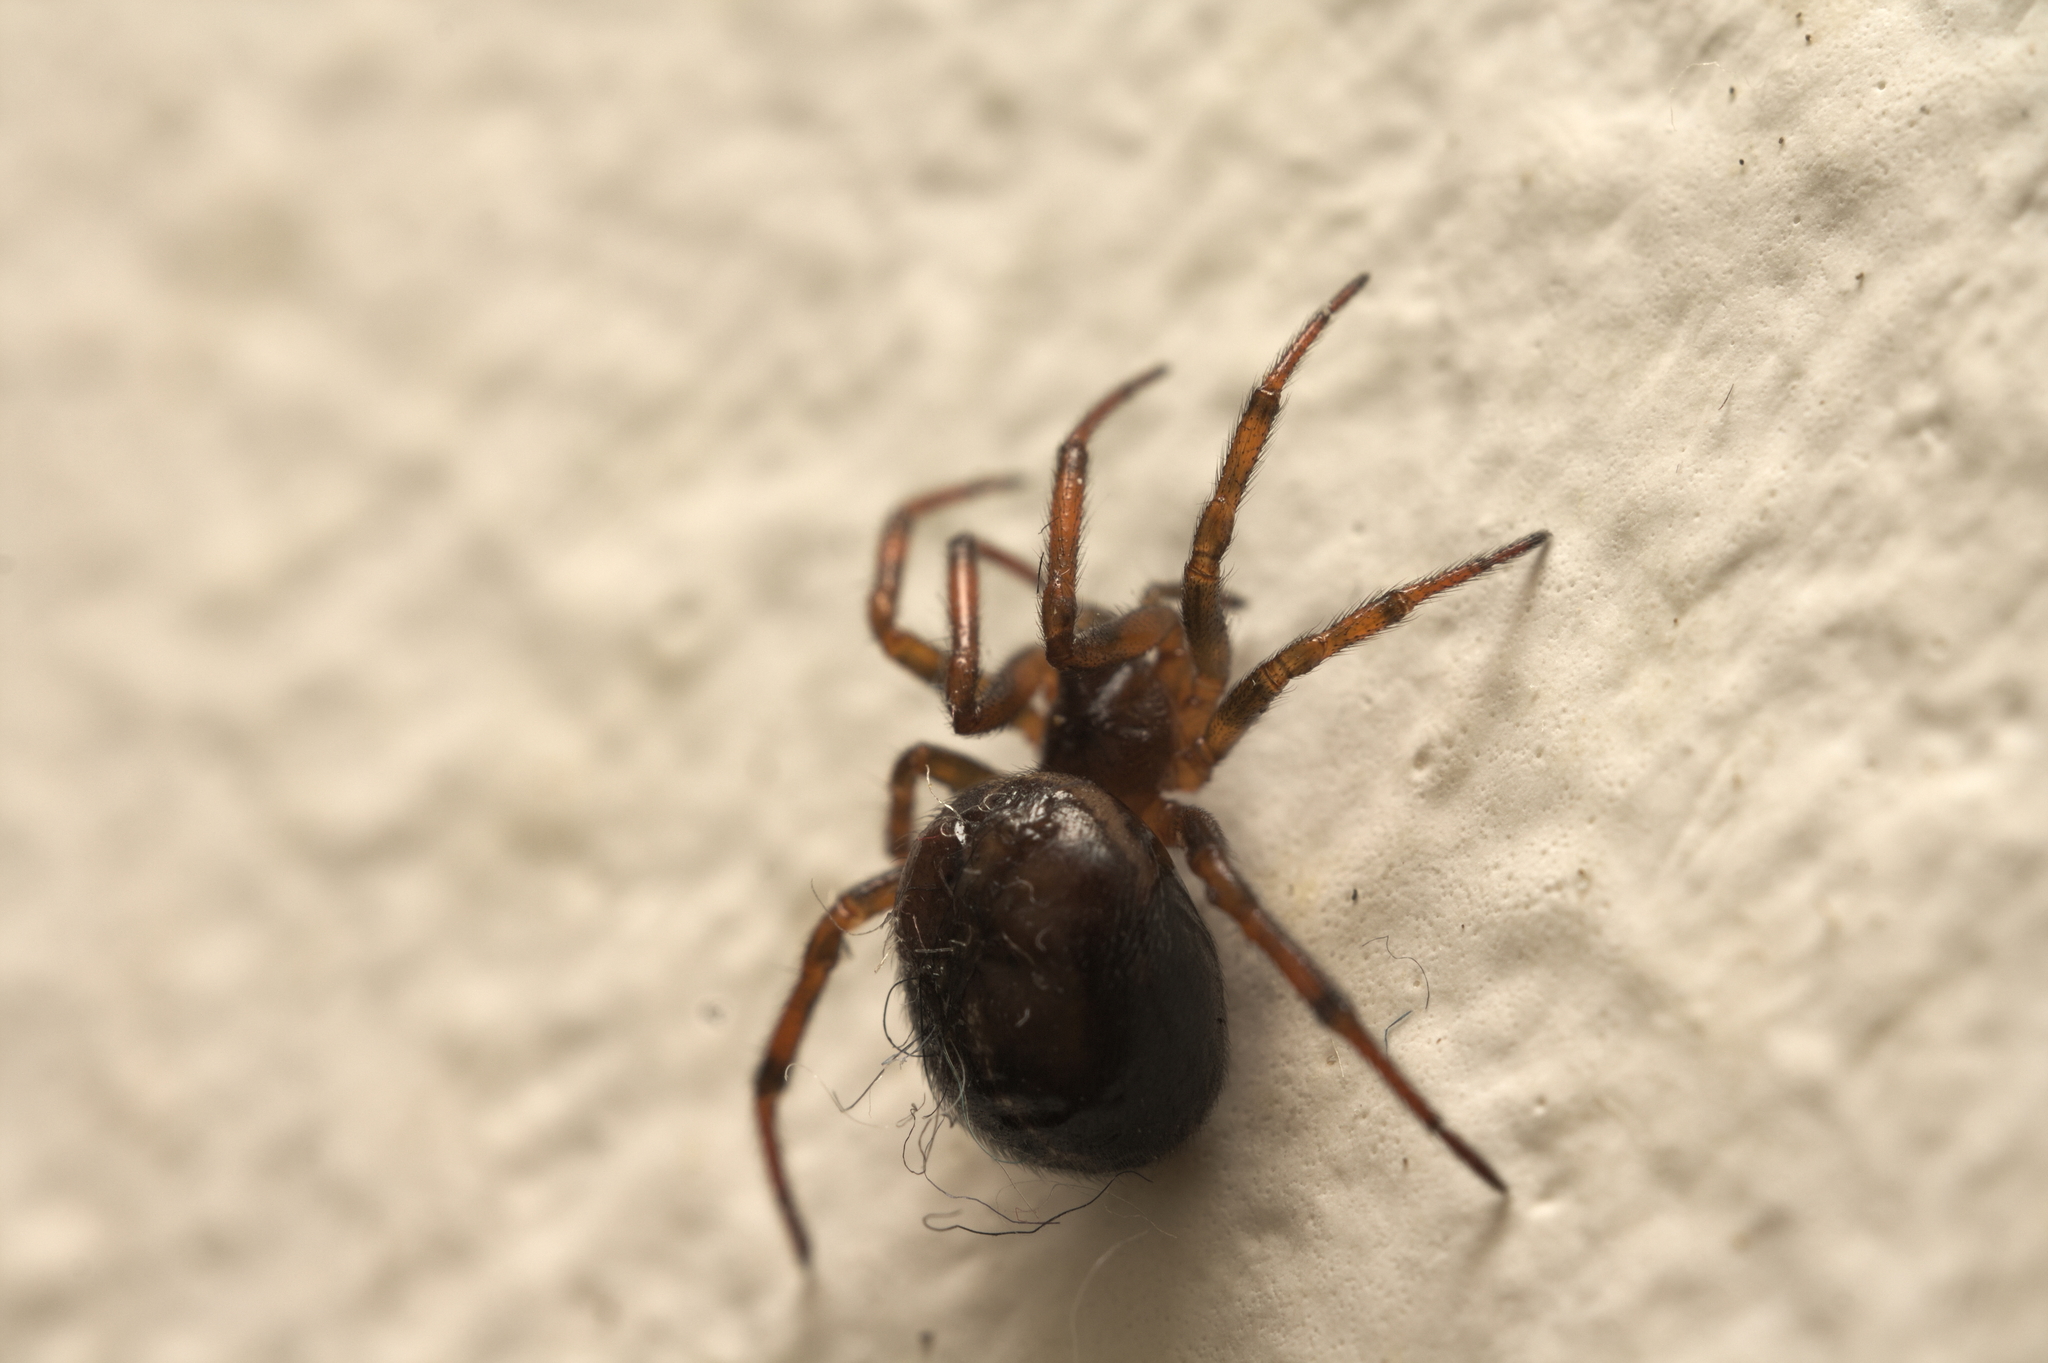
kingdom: Animalia
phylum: Arthropoda
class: Arachnida
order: Araneae
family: Theridiidae
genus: Steatoda
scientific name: Steatoda bipunctata
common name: False widow
